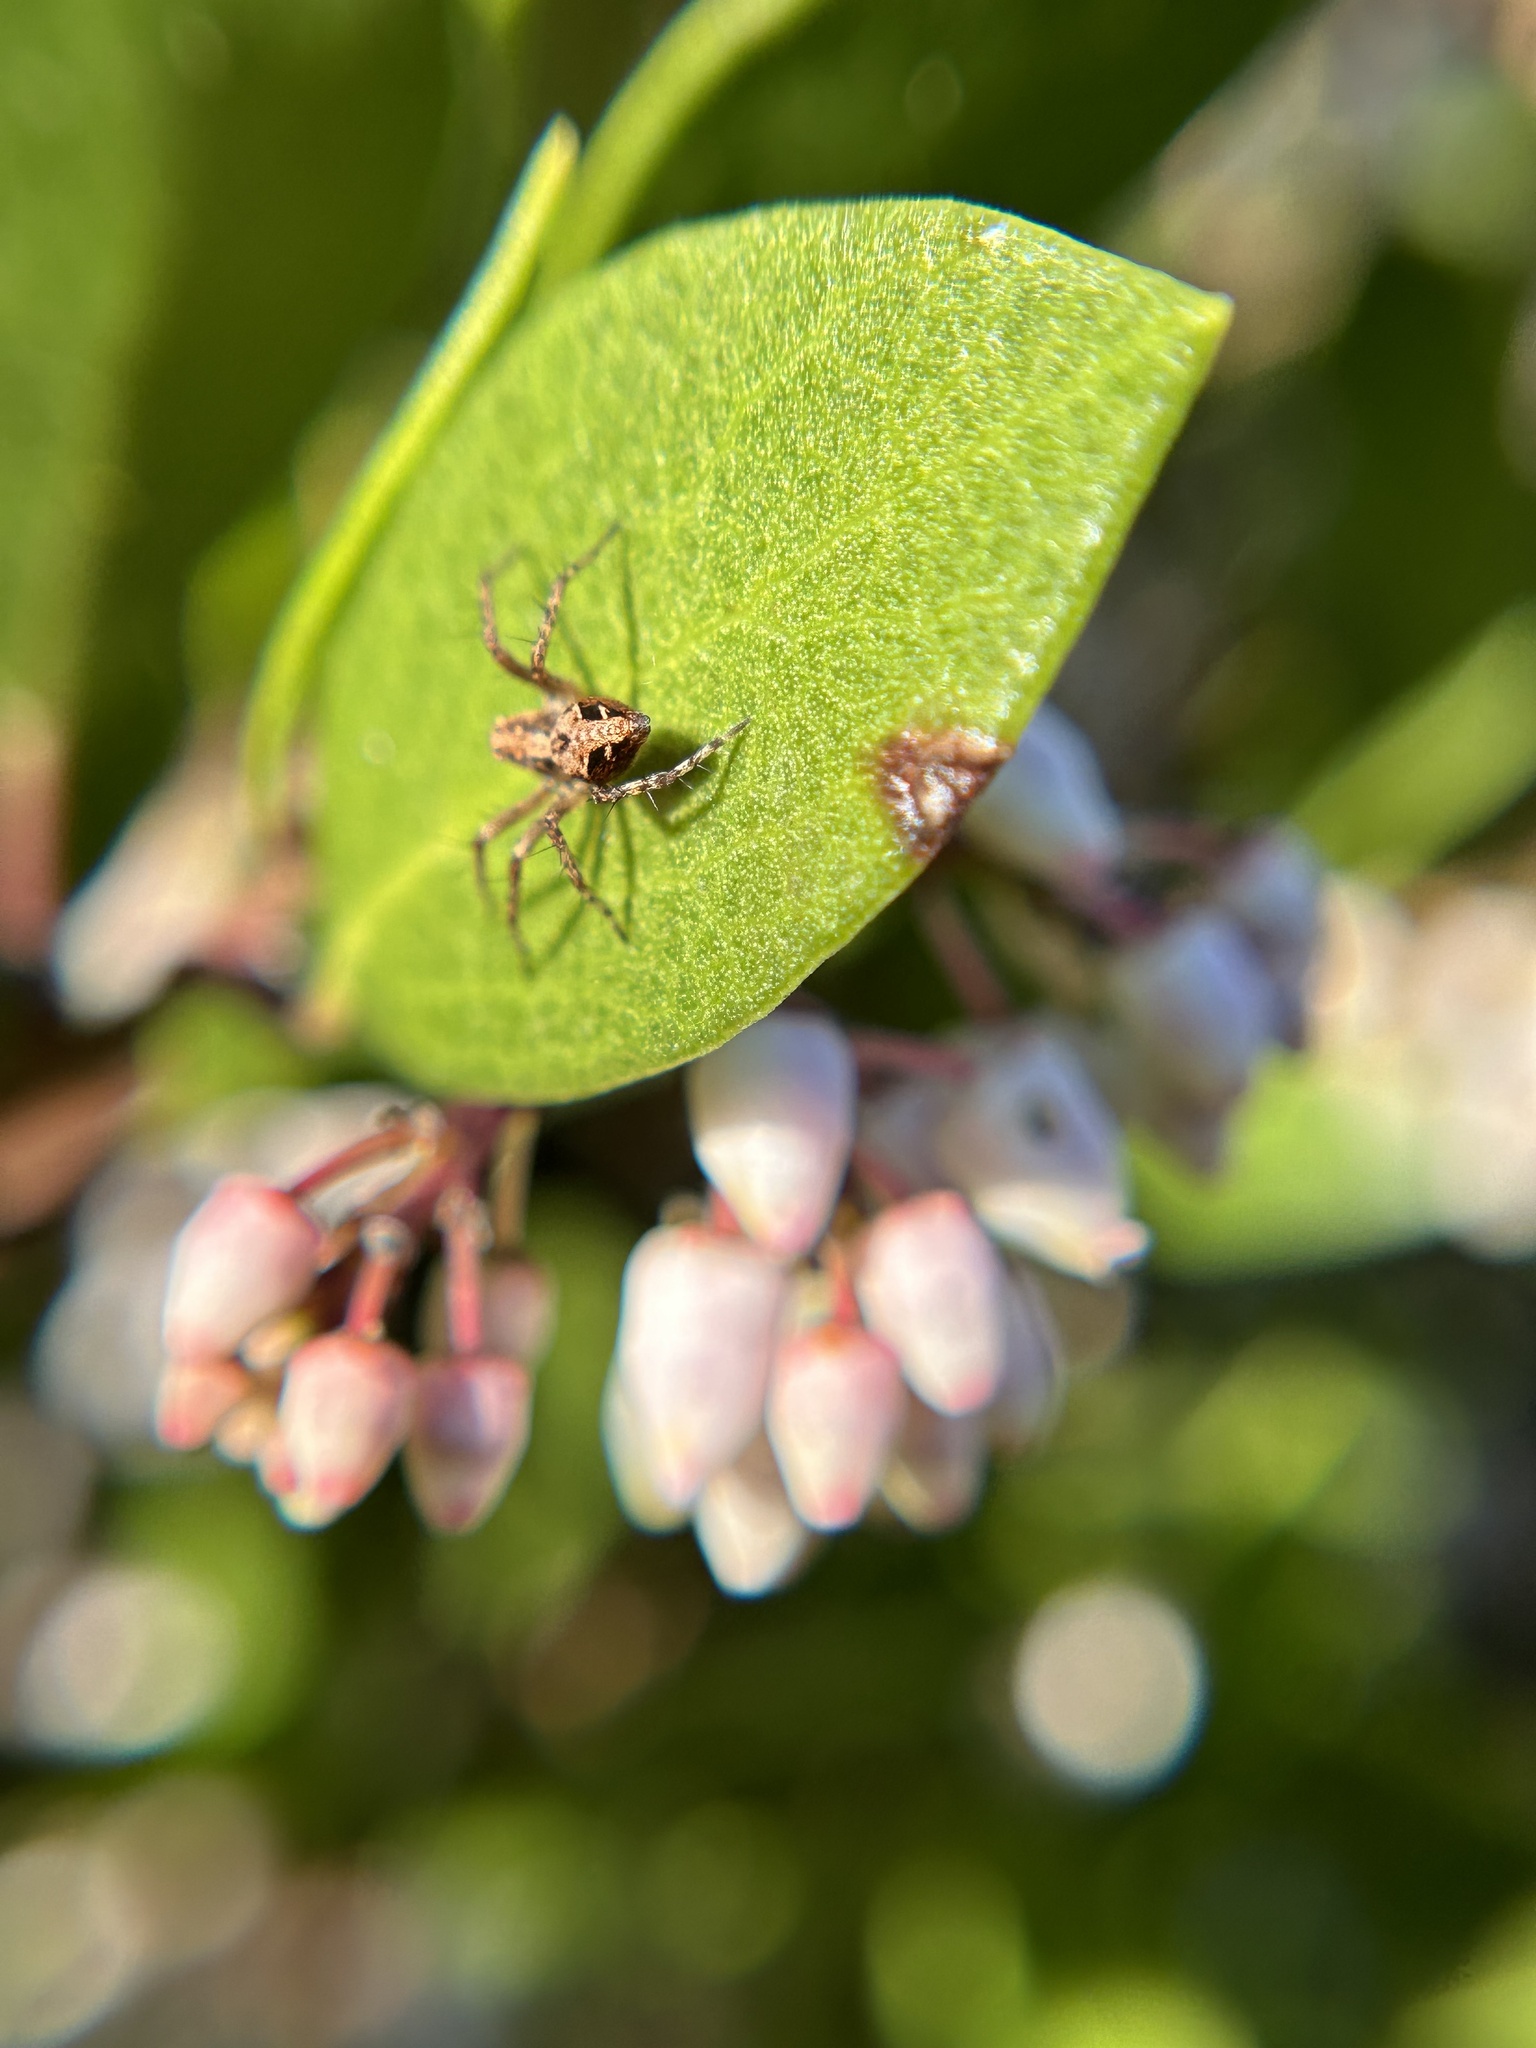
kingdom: Animalia
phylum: Arthropoda
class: Arachnida
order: Araneae
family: Oxyopidae
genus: Oxyopes
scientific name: Oxyopes scalaris
